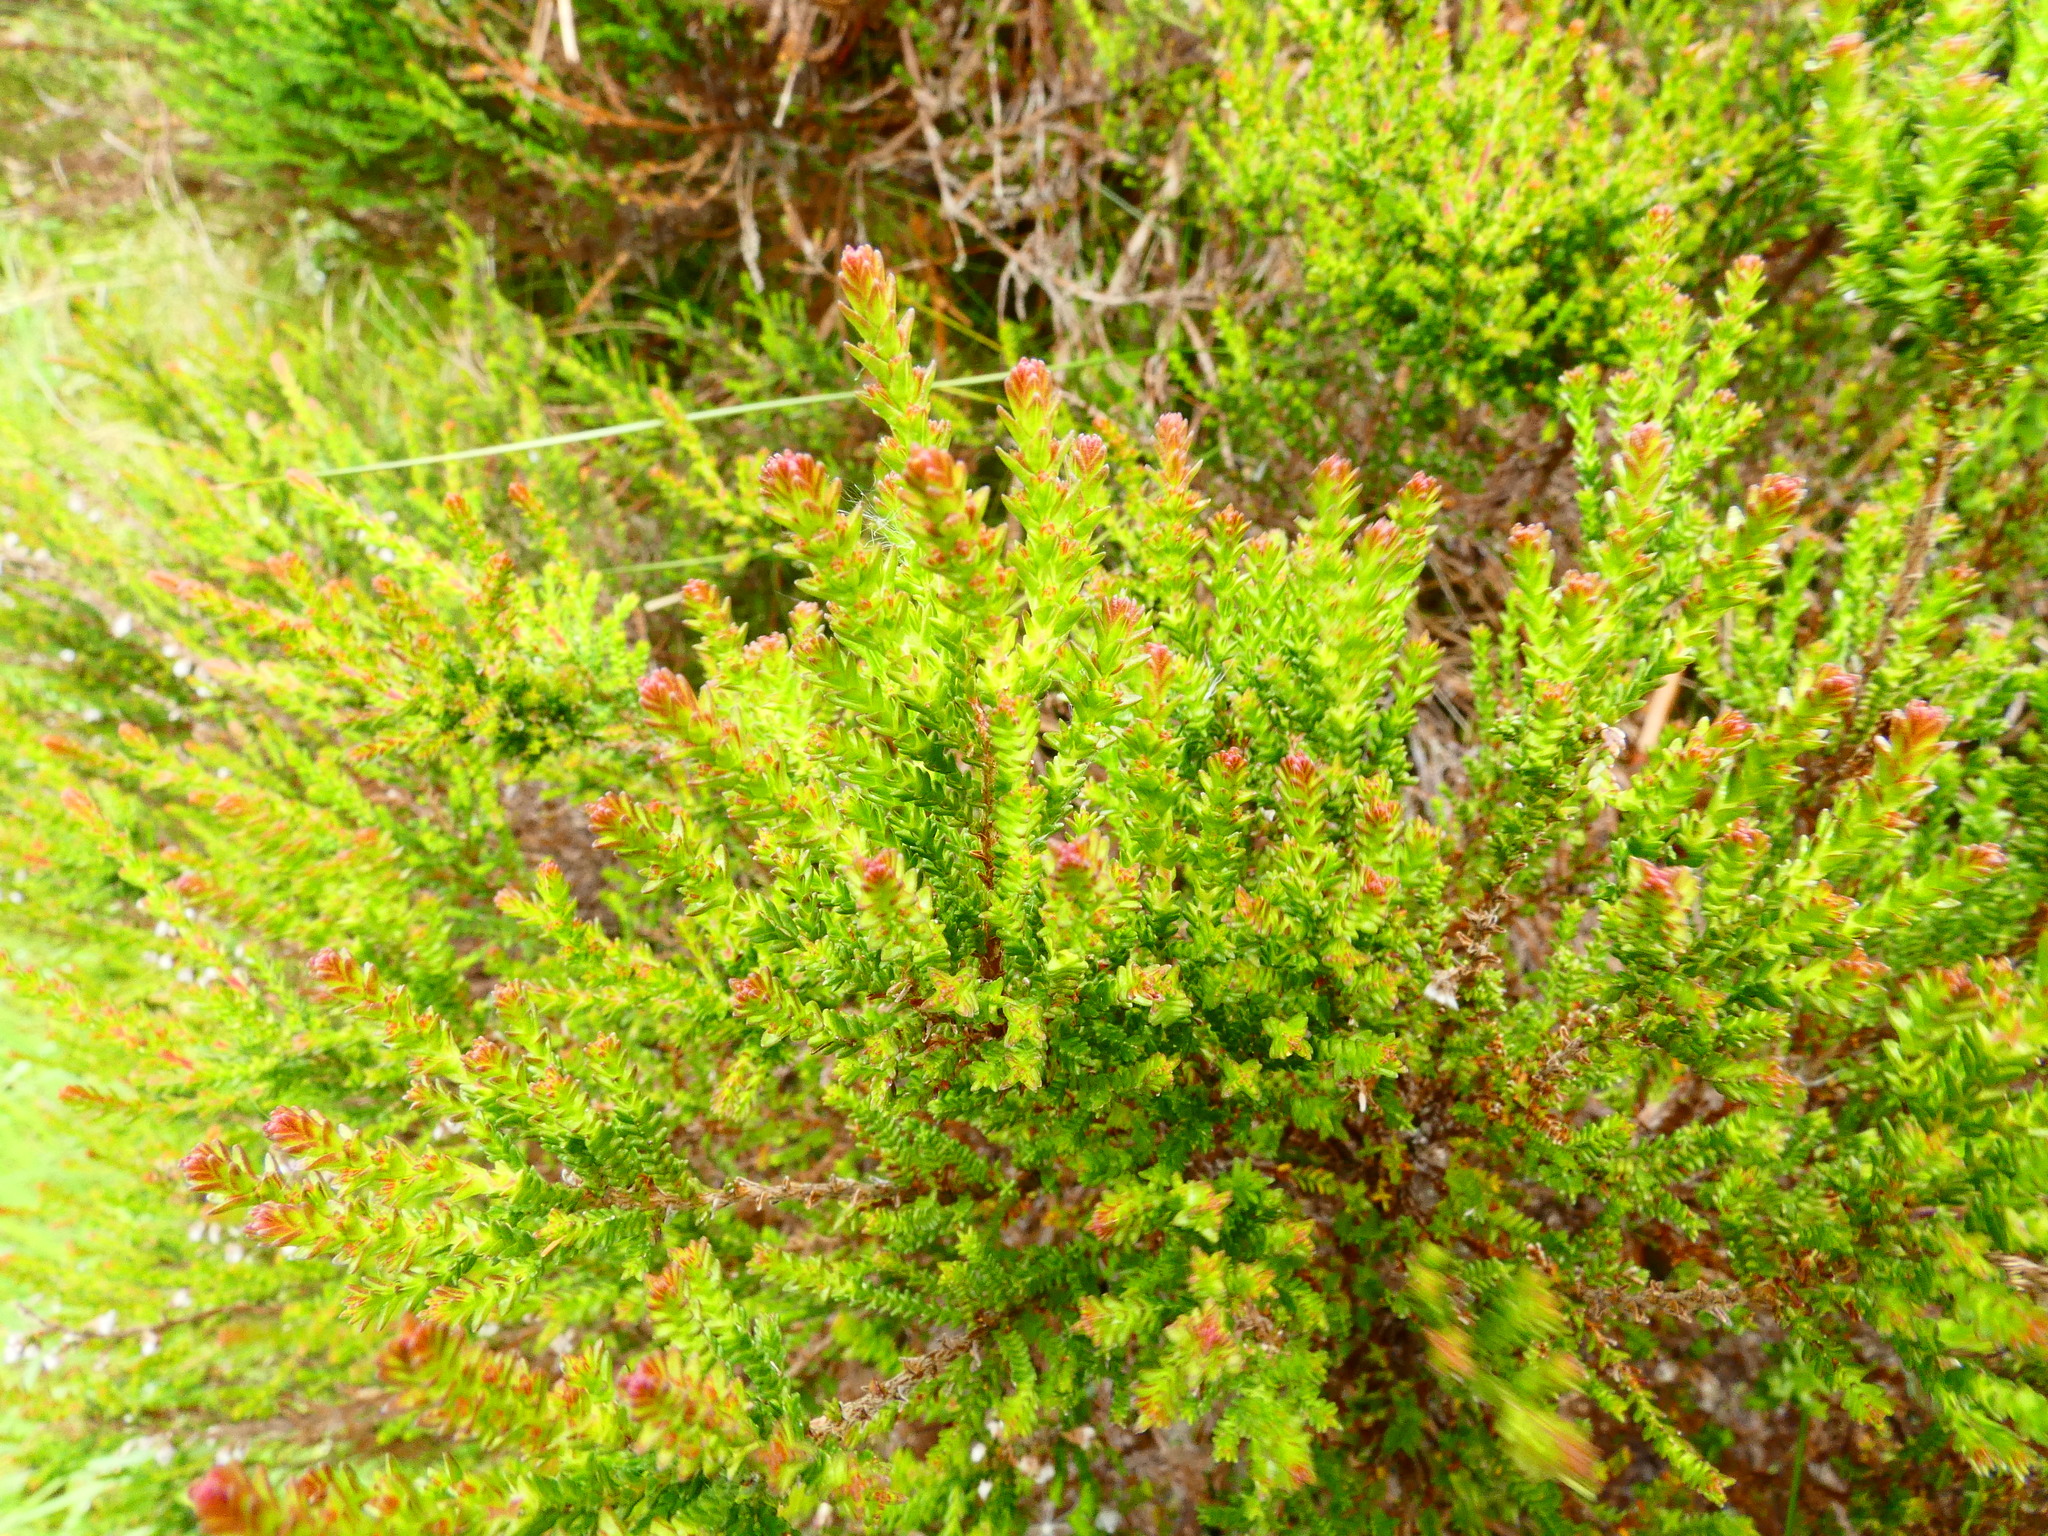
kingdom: Plantae
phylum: Tracheophyta
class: Magnoliopsida
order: Ericales
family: Ericaceae
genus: Calluna
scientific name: Calluna vulgaris
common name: Heather
